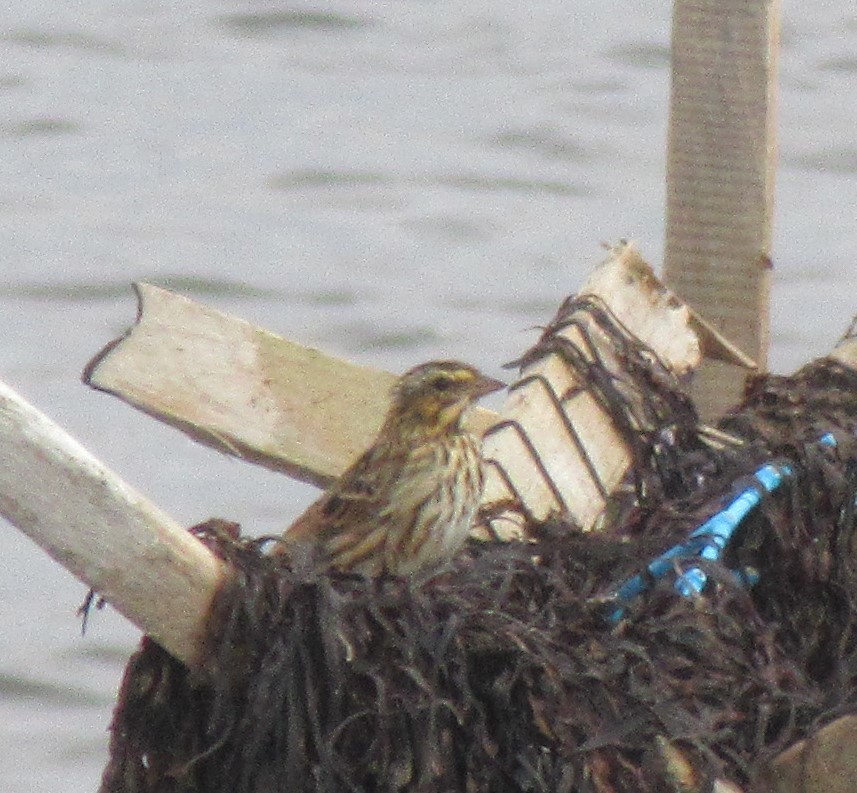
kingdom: Animalia
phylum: Chordata
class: Aves
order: Passeriformes
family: Passerellidae
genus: Passerculus
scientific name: Passerculus sandwichensis
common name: Savannah sparrow
